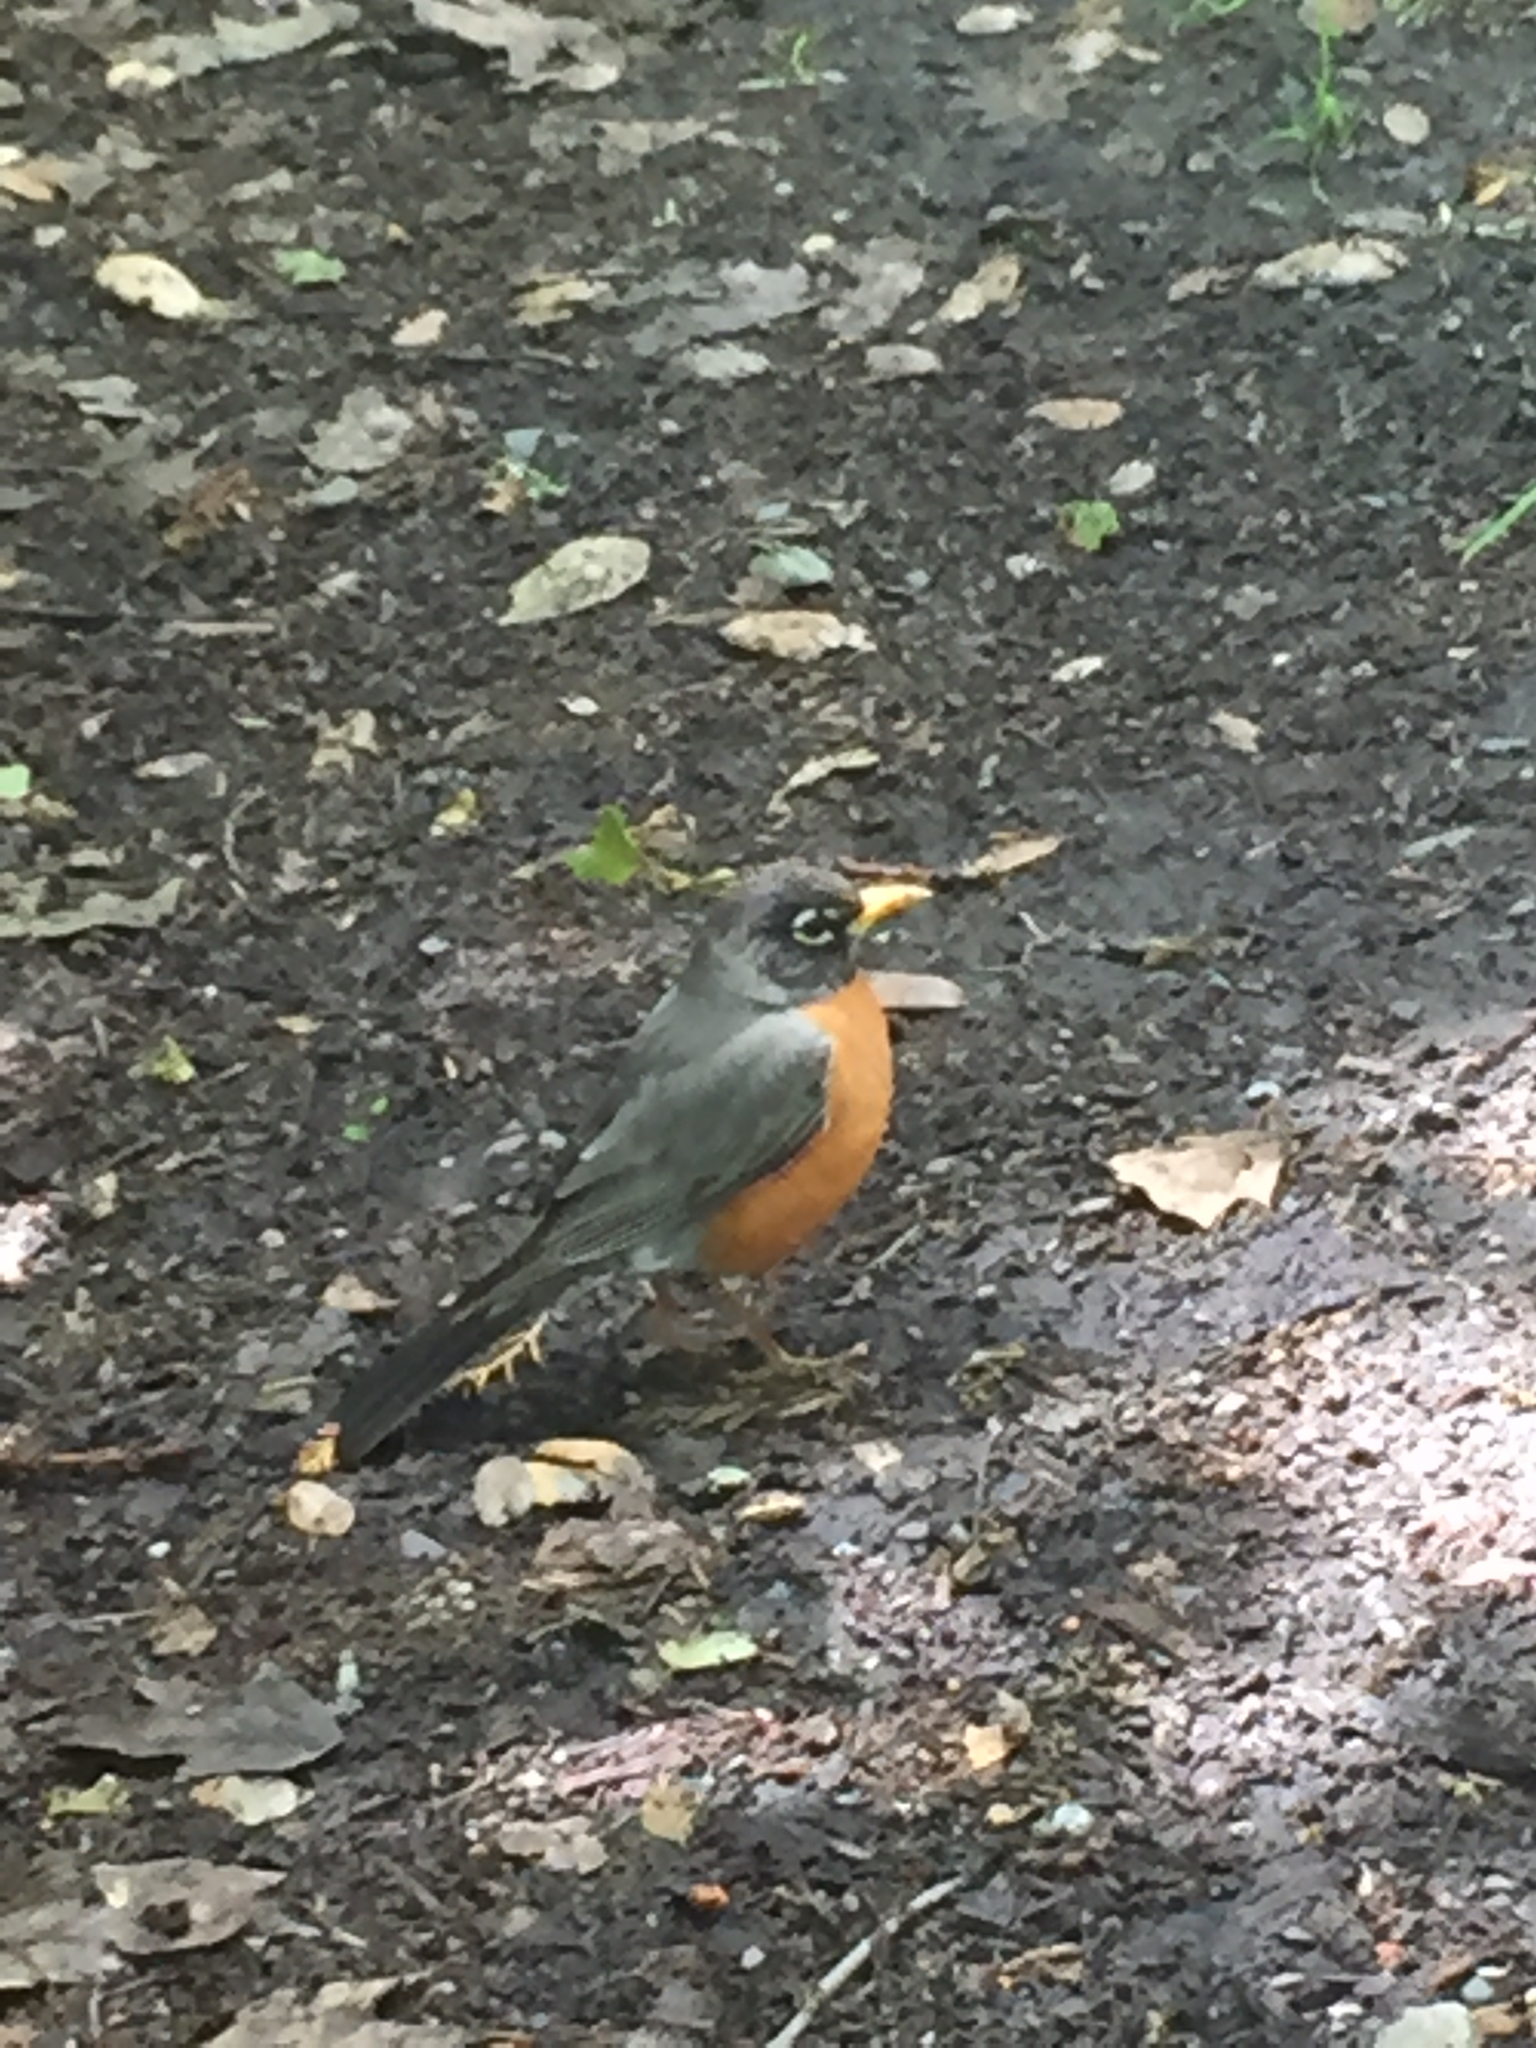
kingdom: Animalia
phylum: Chordata
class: Aves
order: Passeriformes
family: Turdidae
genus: Turdus
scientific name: Turdus migratorius
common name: American robin
